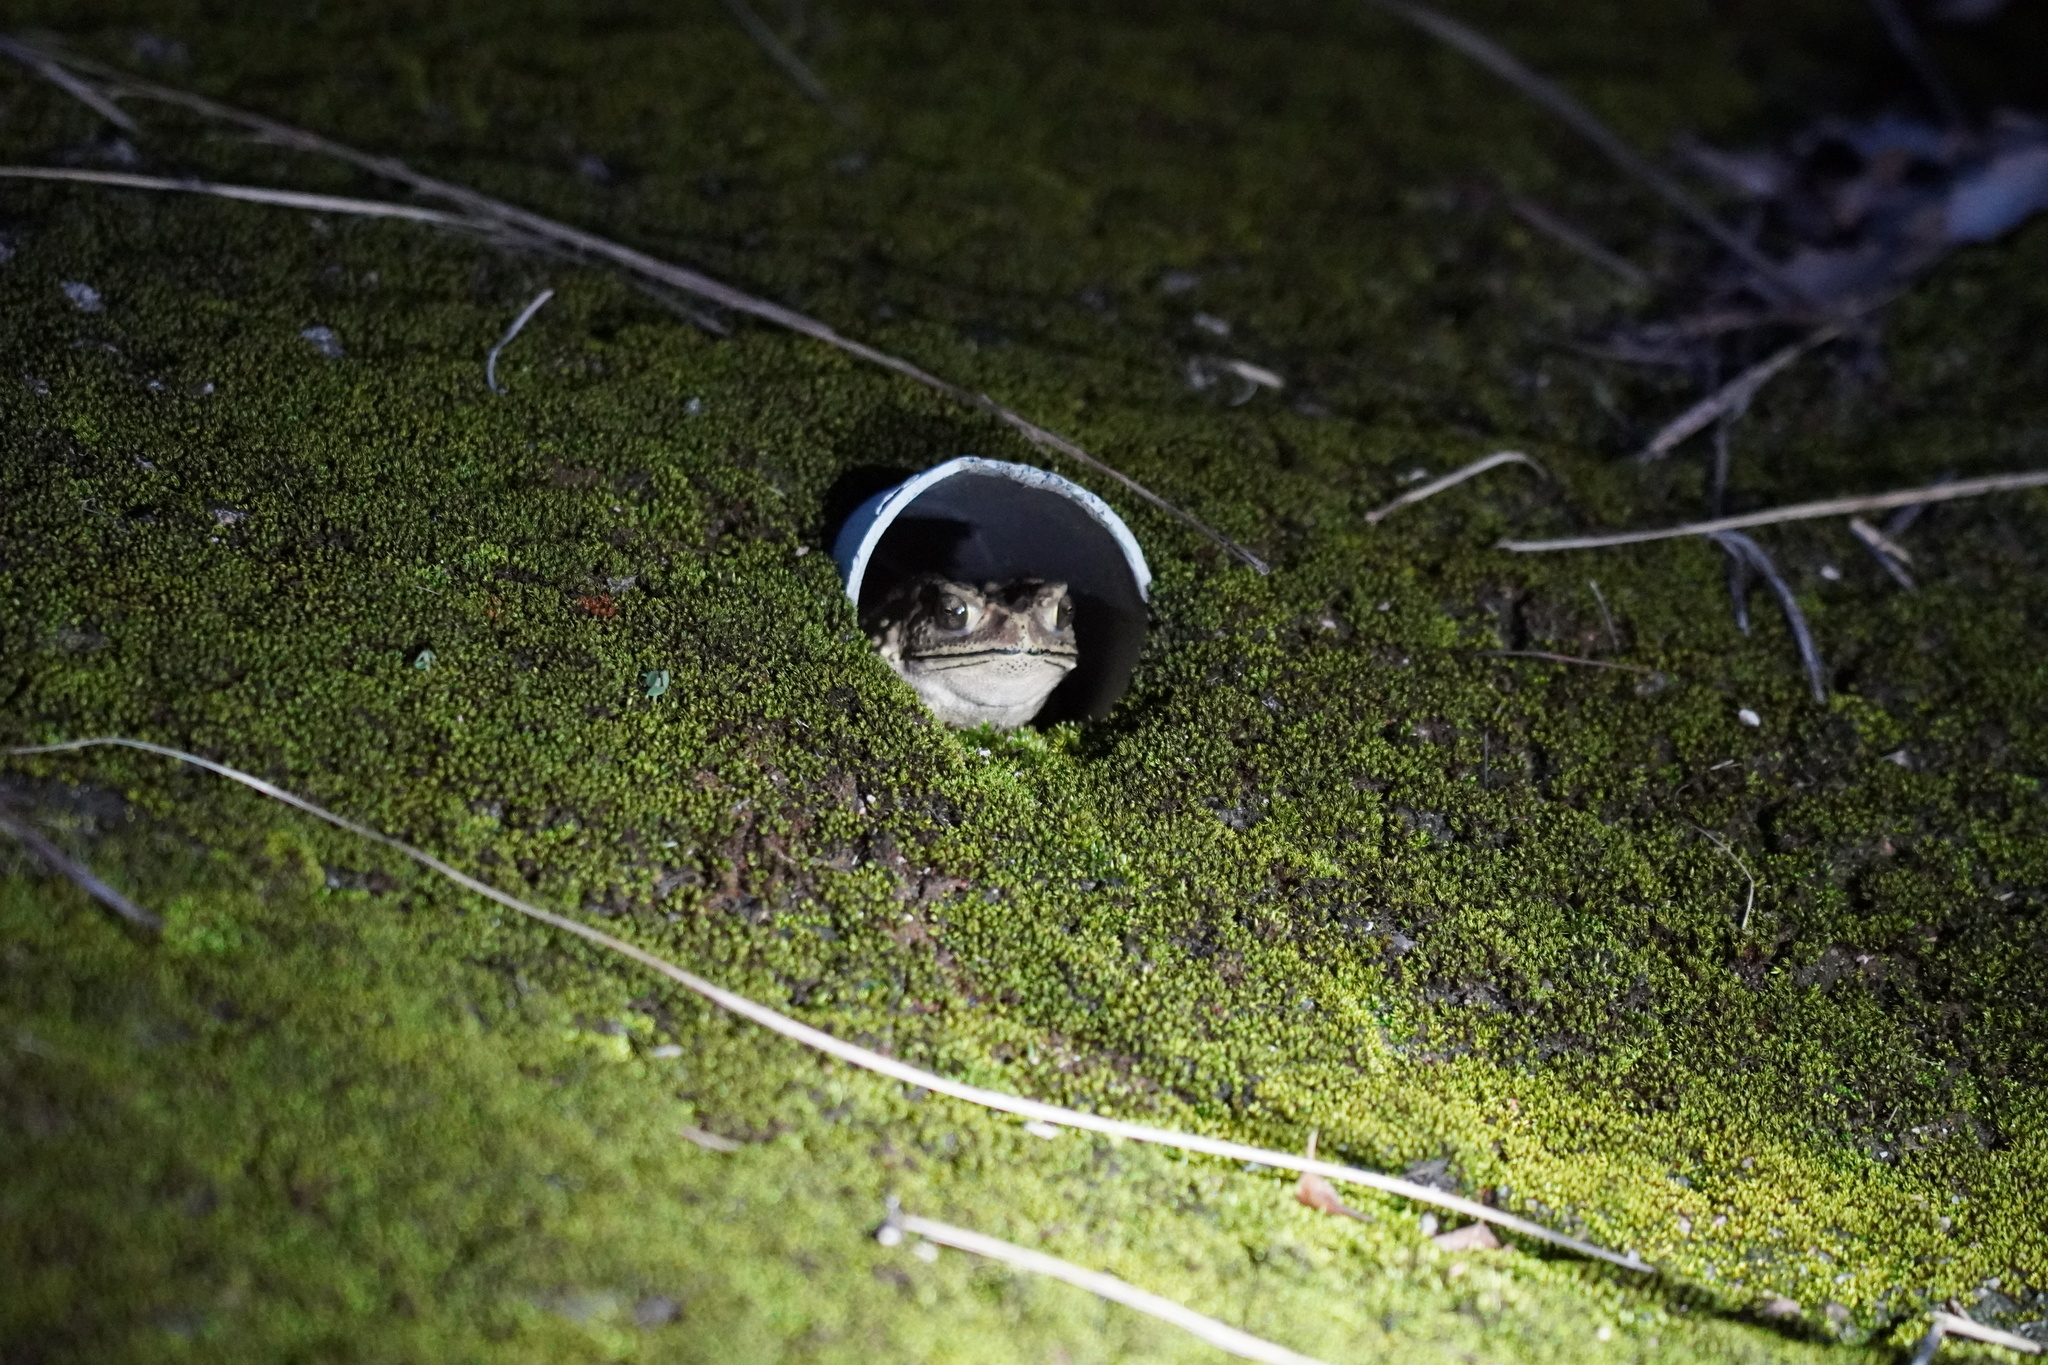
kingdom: Animalia
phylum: Chordata
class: Amphibia
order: Anura
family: Bufonidae
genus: Duttaphrynus
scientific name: Duttaphrynus melanostictus
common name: Common sunda toad
